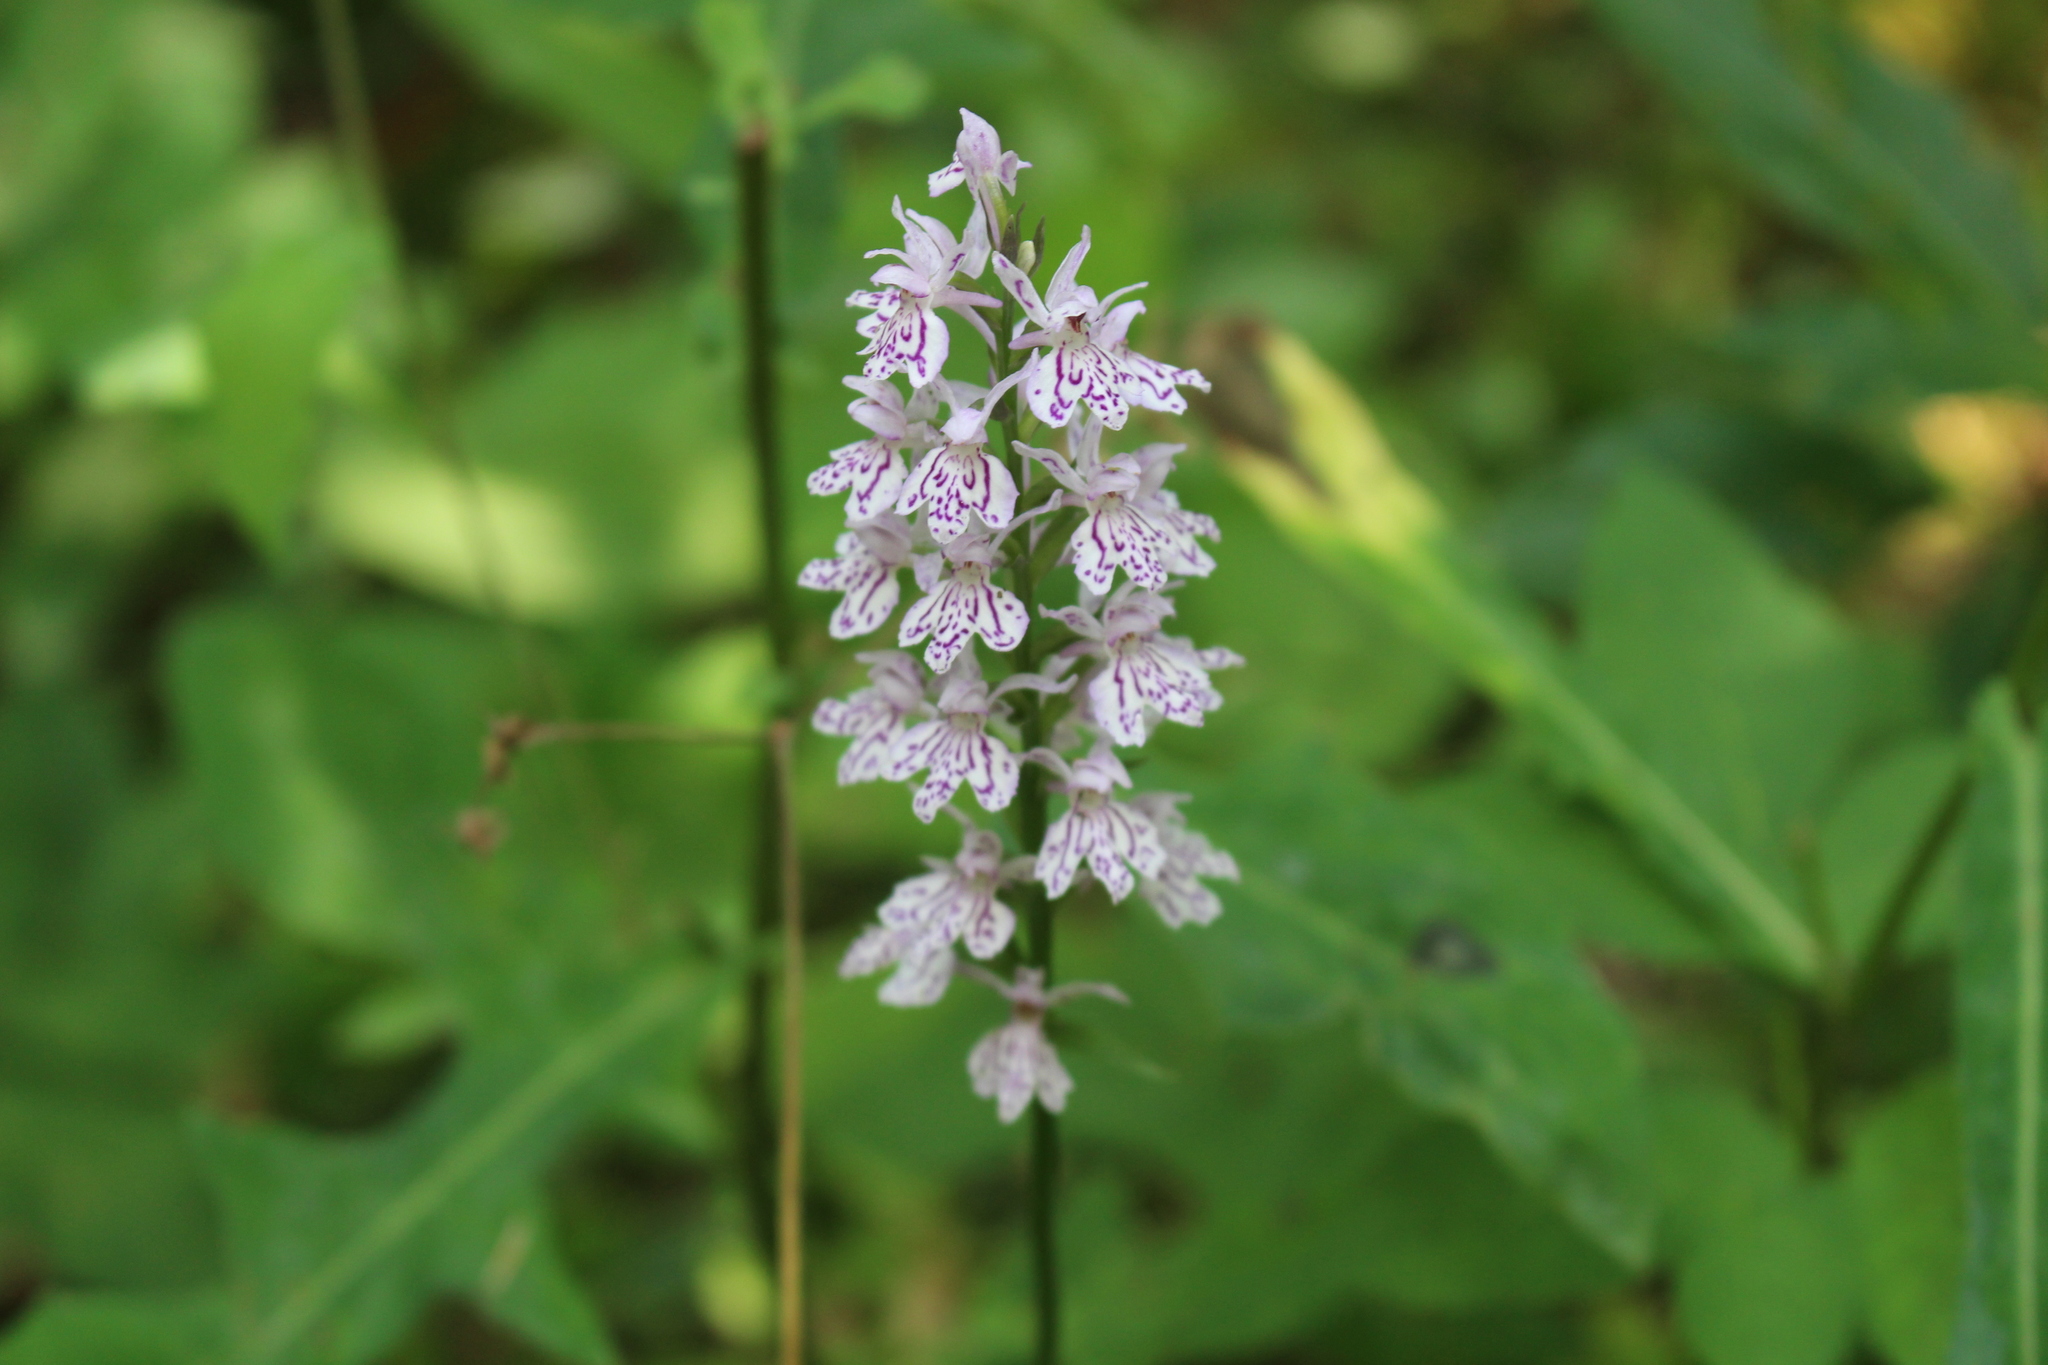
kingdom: Plantae
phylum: Tracheophyta
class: Liliopsida
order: Asparagales
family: Orchidaceae
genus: Dactylorhiza
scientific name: Dactylorhiza maculata
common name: Heath spotted-orchid
